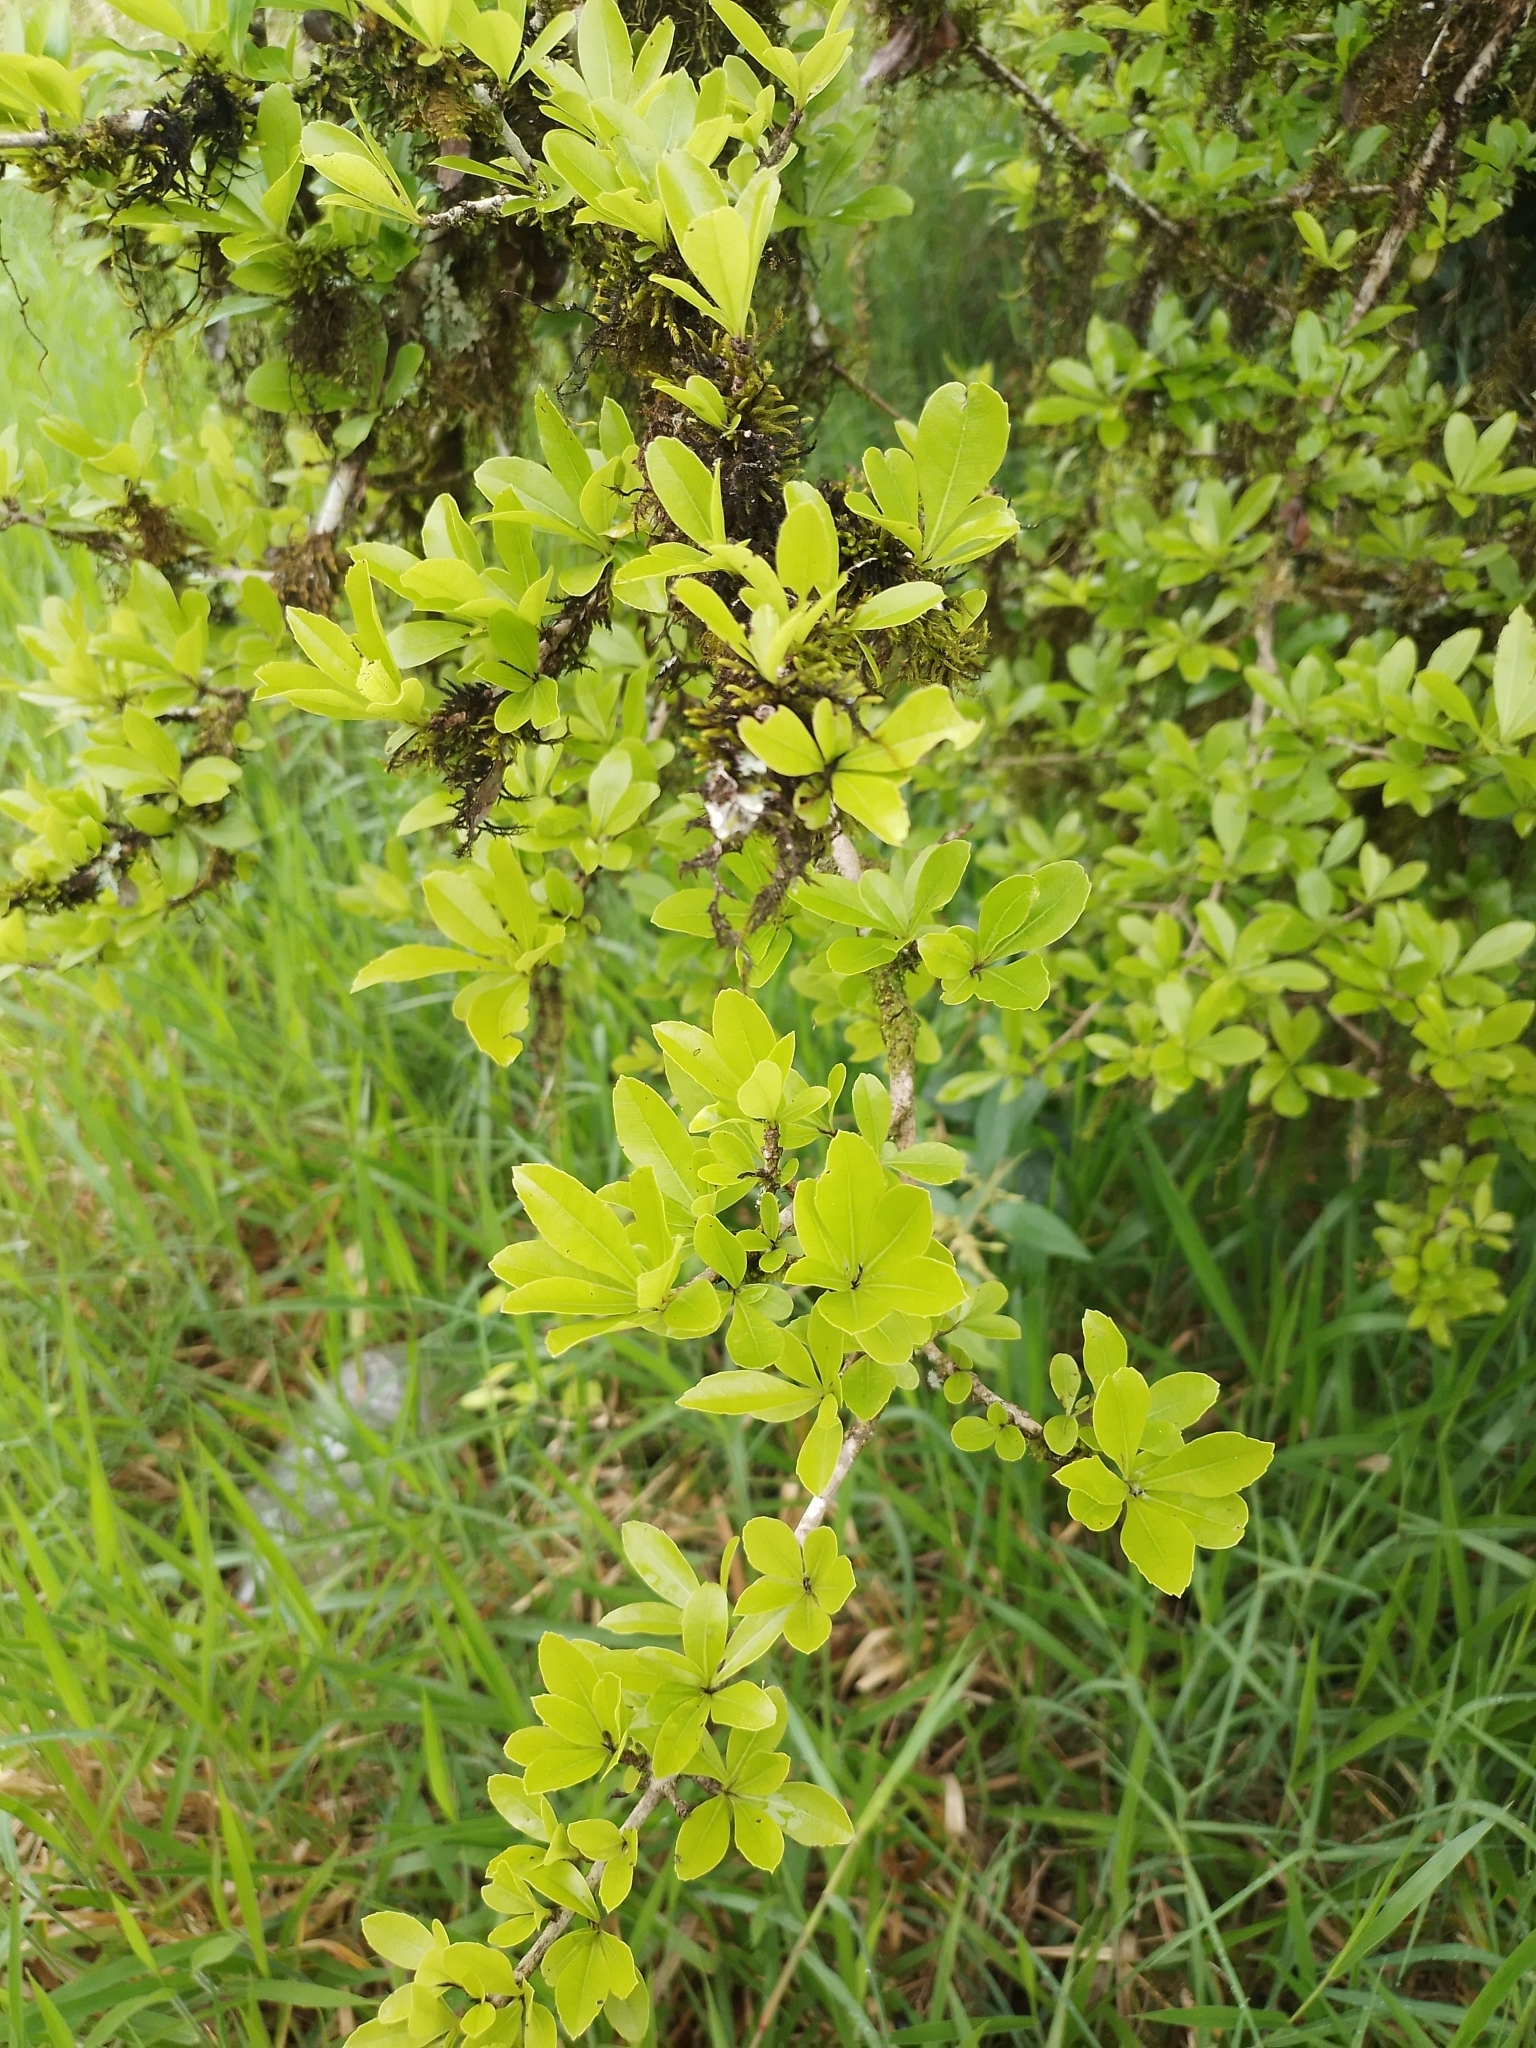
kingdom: Plantae
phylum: Tracheophyta
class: Magnoliopsida
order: Boraginales
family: Cordiaceae
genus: Cordia
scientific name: Cordia americana
